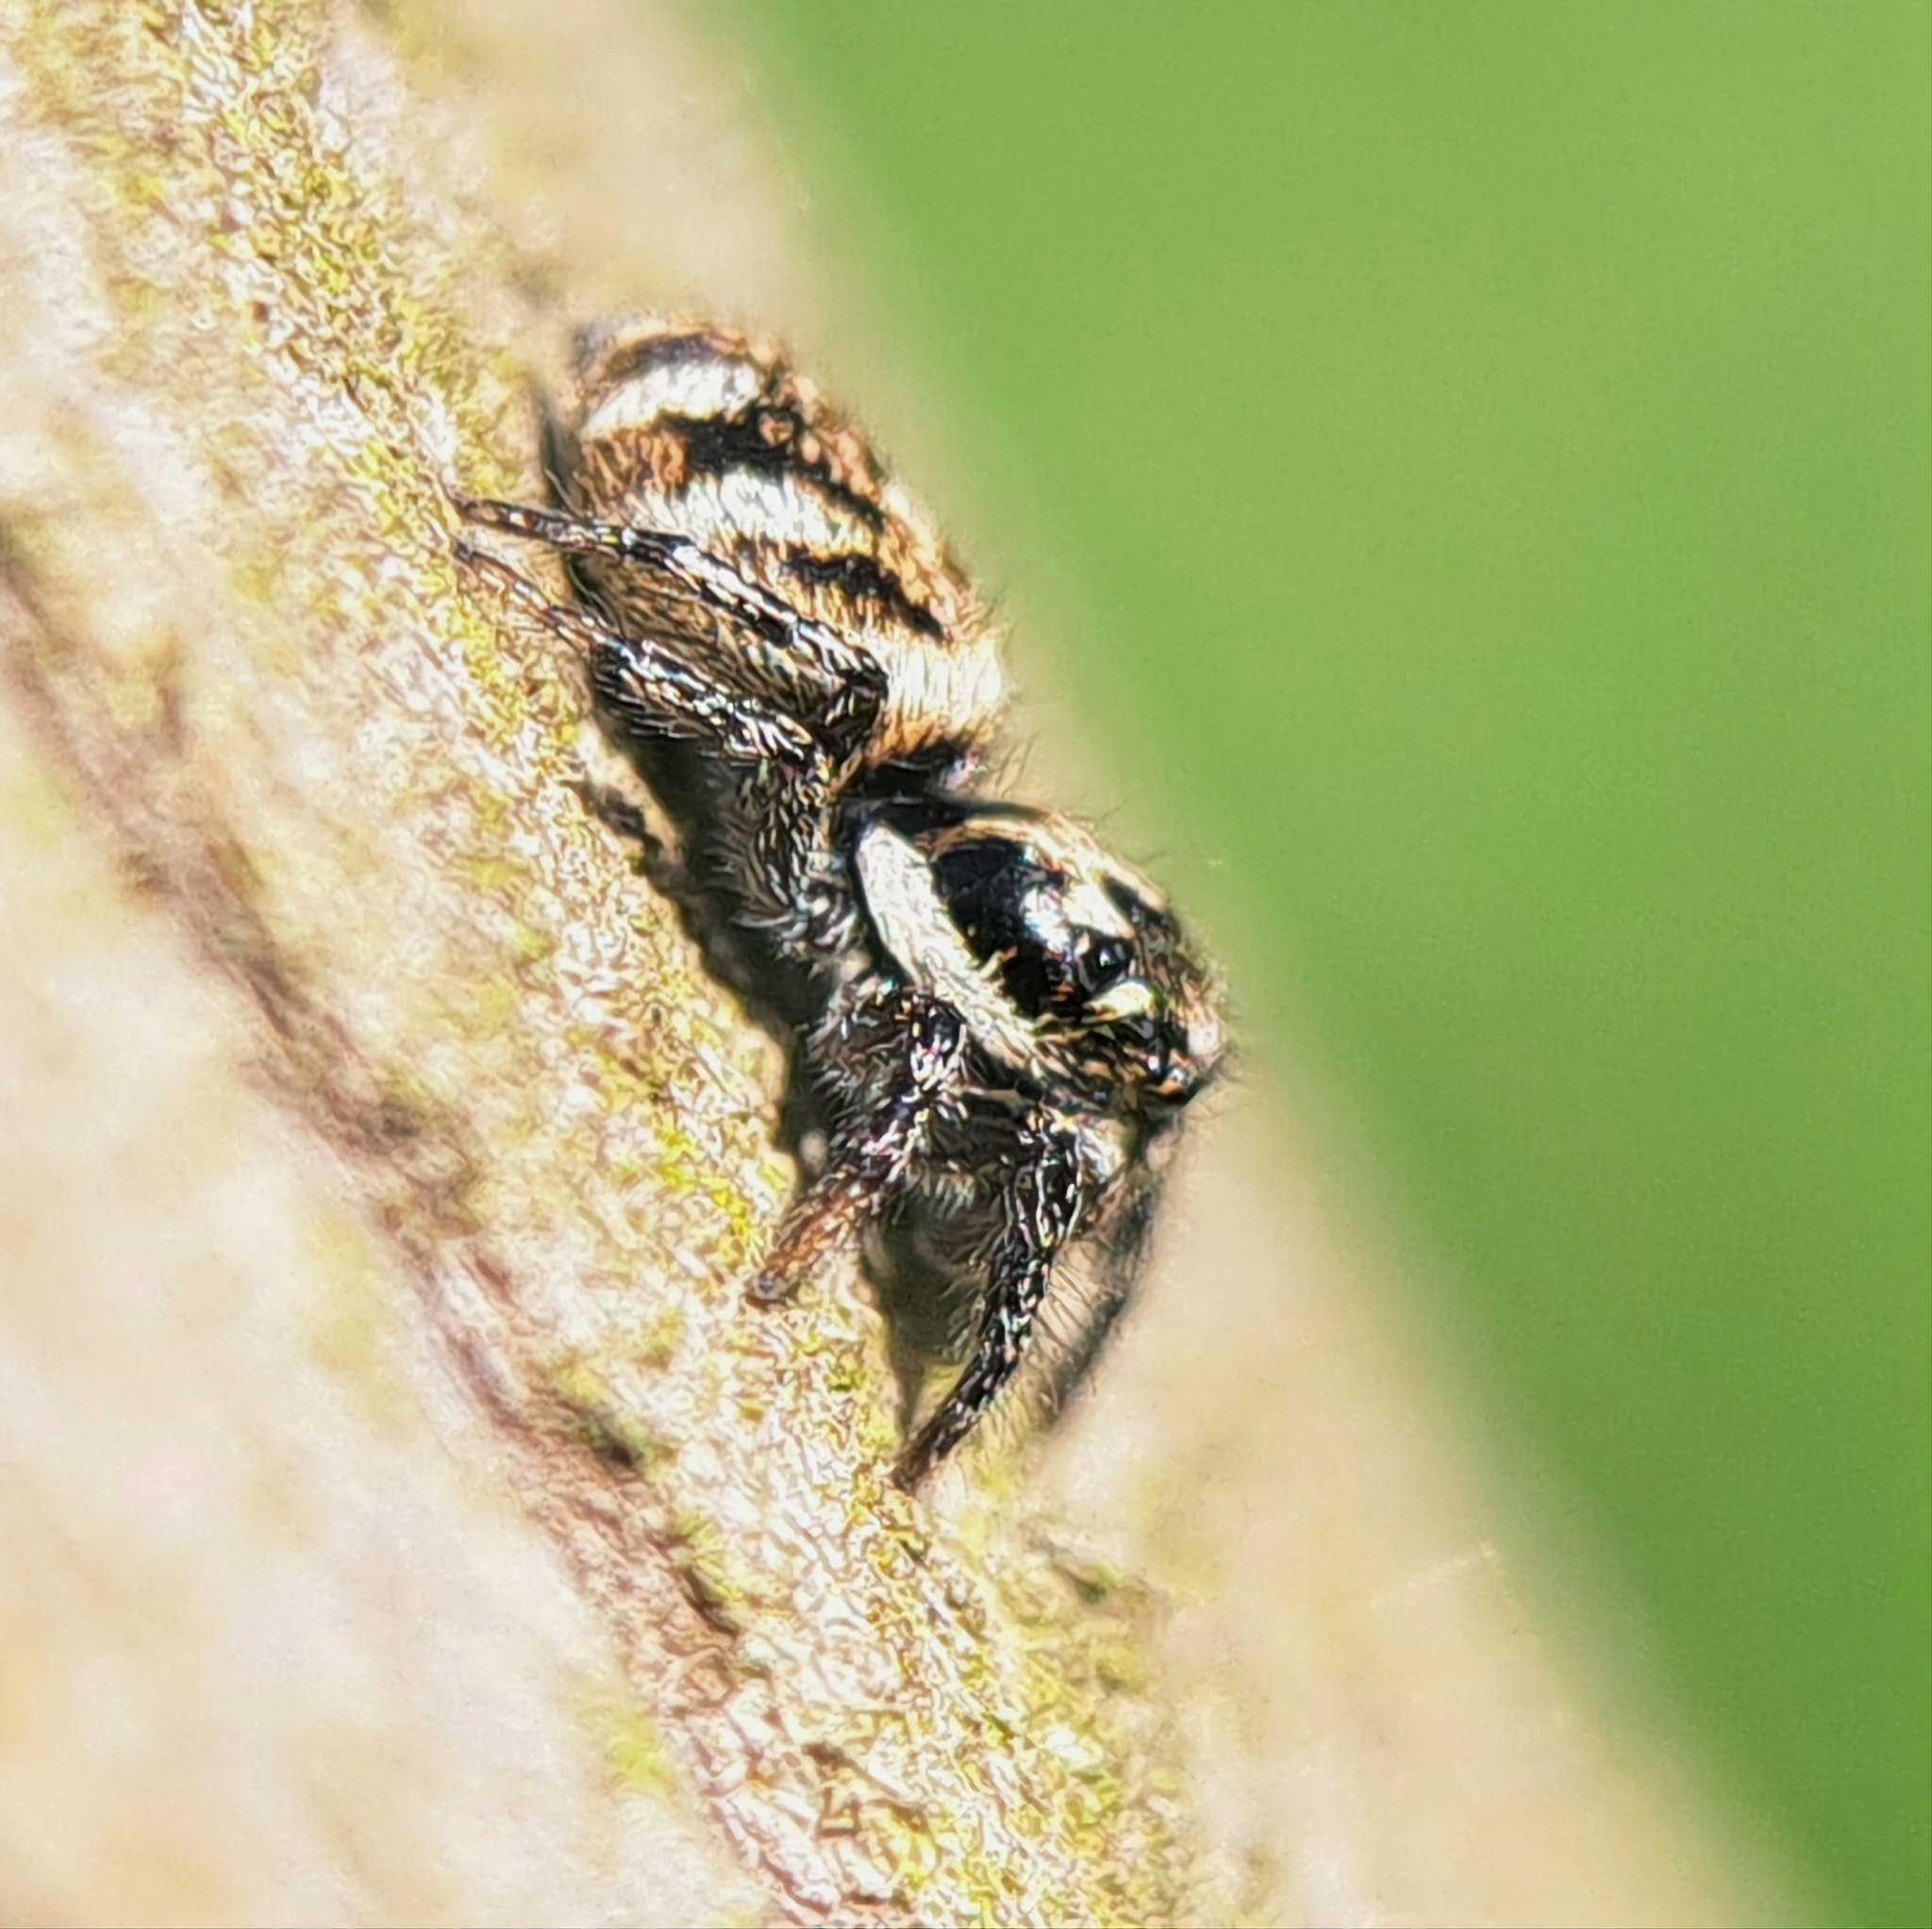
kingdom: Animalia
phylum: Arthropoda
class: Arachnida
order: Araneae
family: Salticidae
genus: Salticus
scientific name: Salticus scenicus
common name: Zebra jumper
